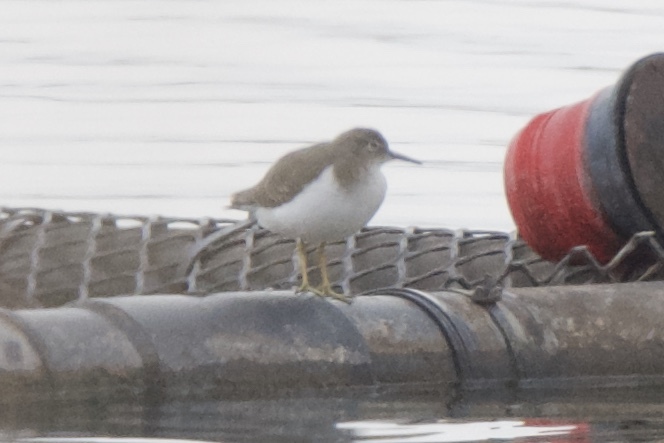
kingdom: Animalia
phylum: Chordata
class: Aves
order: Charadriiformes
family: Scolopacidae
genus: Actitis
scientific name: Actitis macularius
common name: Spotted sandpiper
